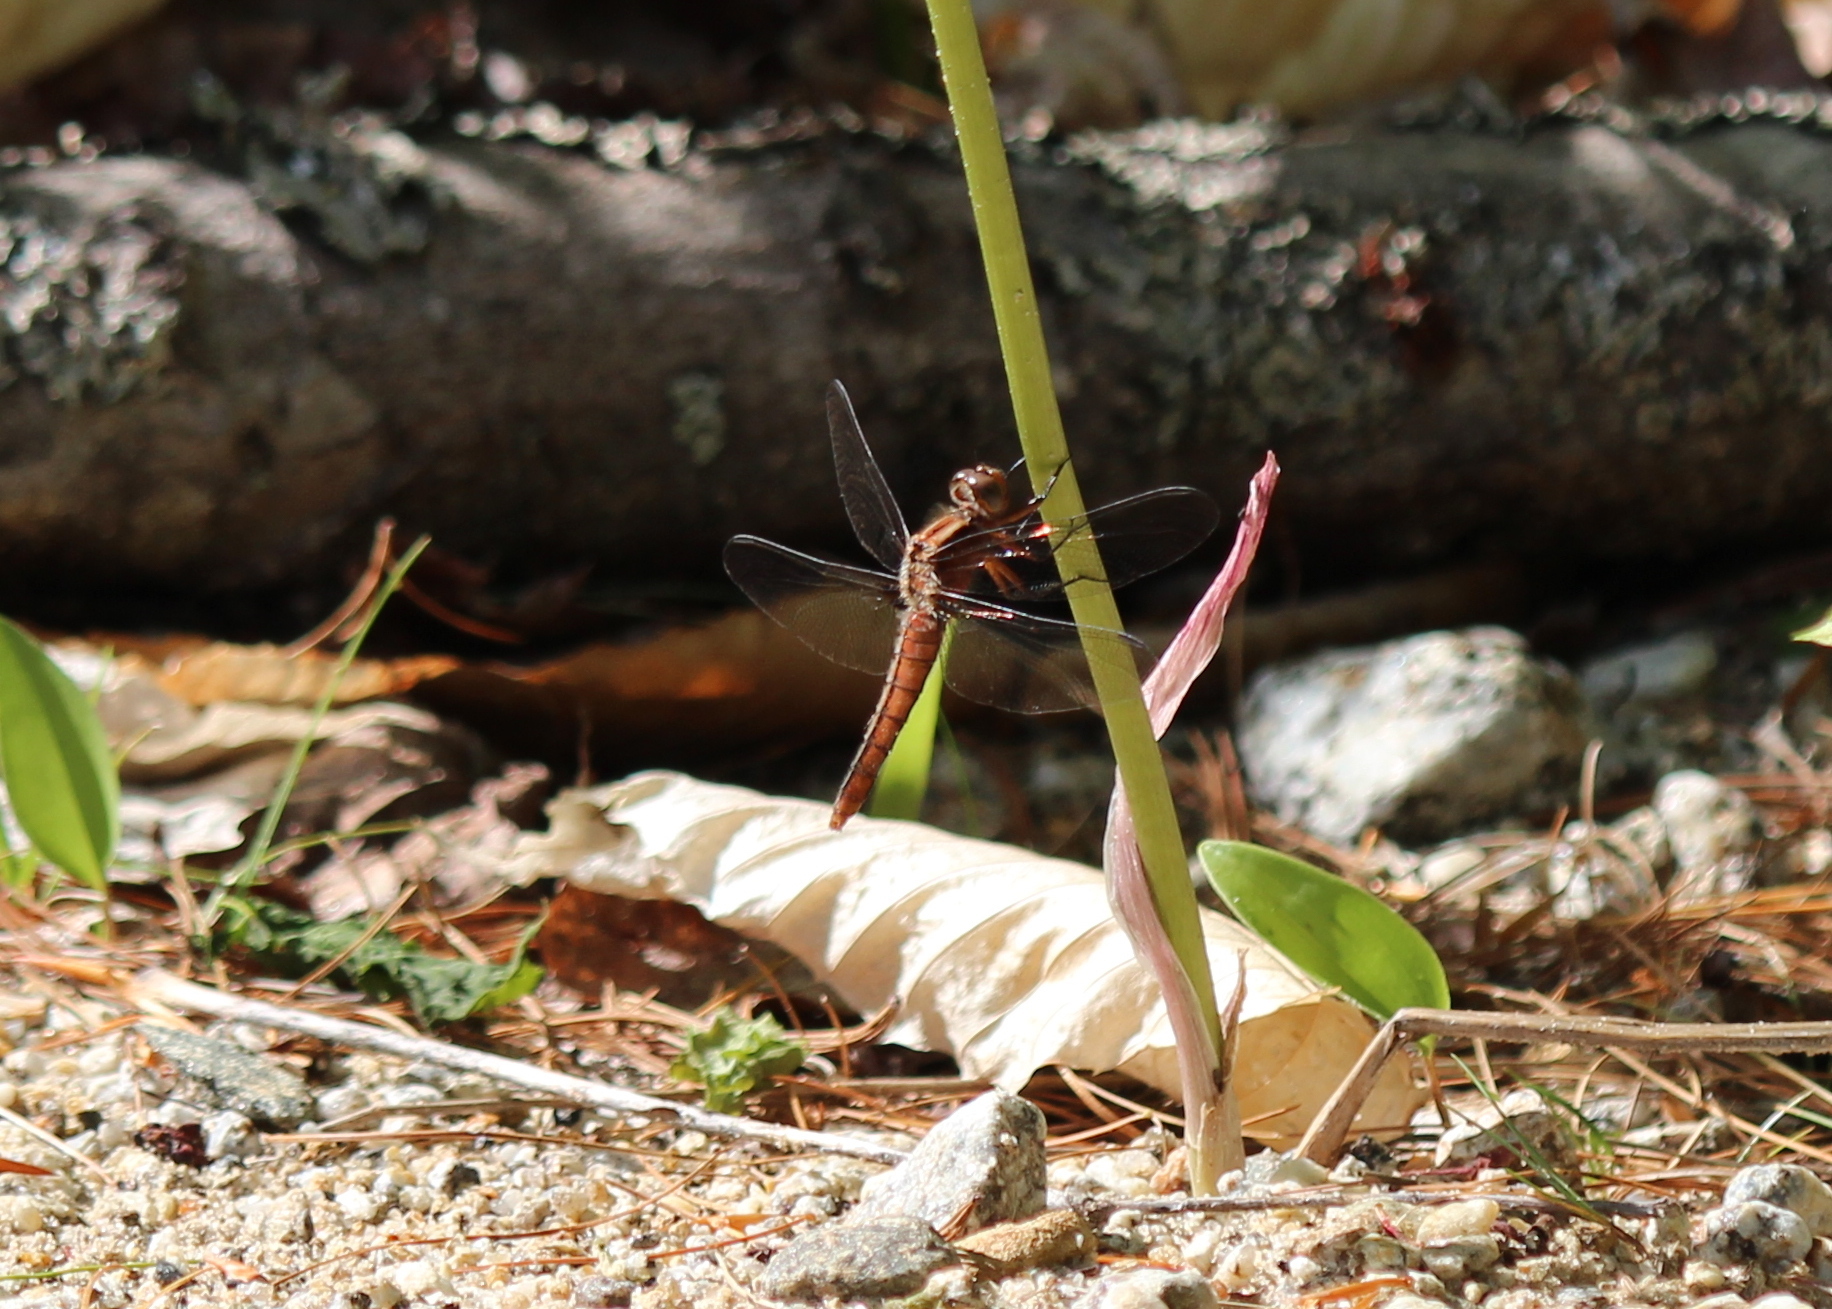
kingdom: Animalia
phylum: Arthropoda
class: Insecta
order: Odonata
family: Libellulidae
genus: Ladona
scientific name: Ladona julia
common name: Chalk-fronted corporal
